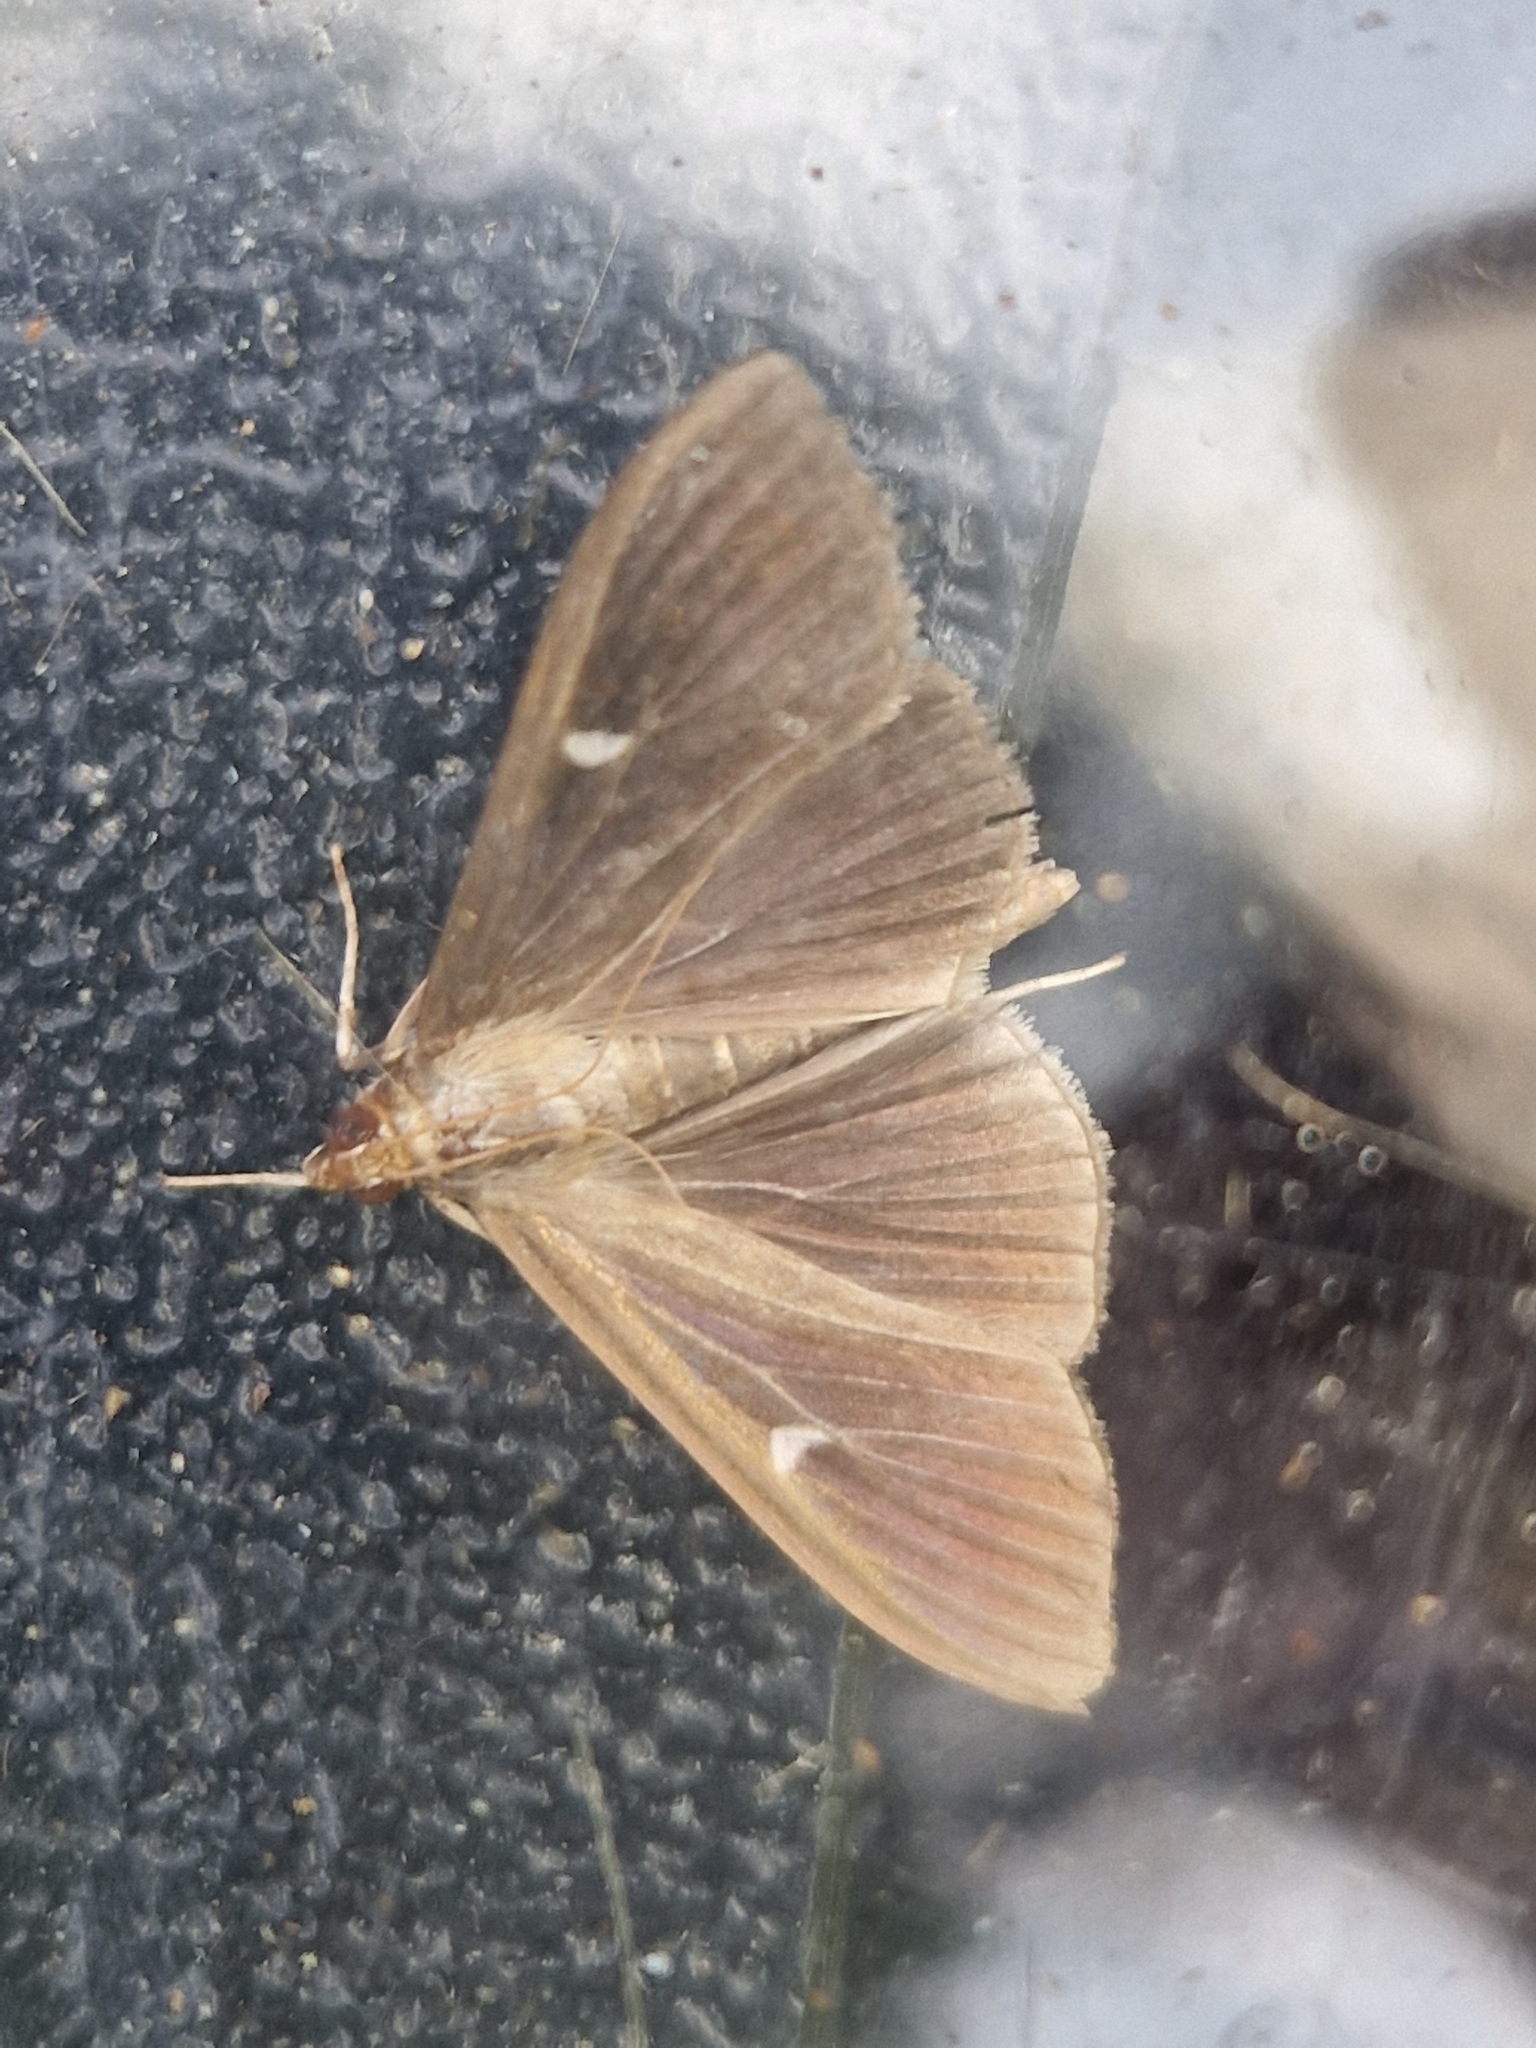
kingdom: Animalia
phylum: Arthropoda
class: Insecta
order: Lepidoptera
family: Crambidae
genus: Cydalima
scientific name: Cydalima perspectalis
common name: Box tree moth
